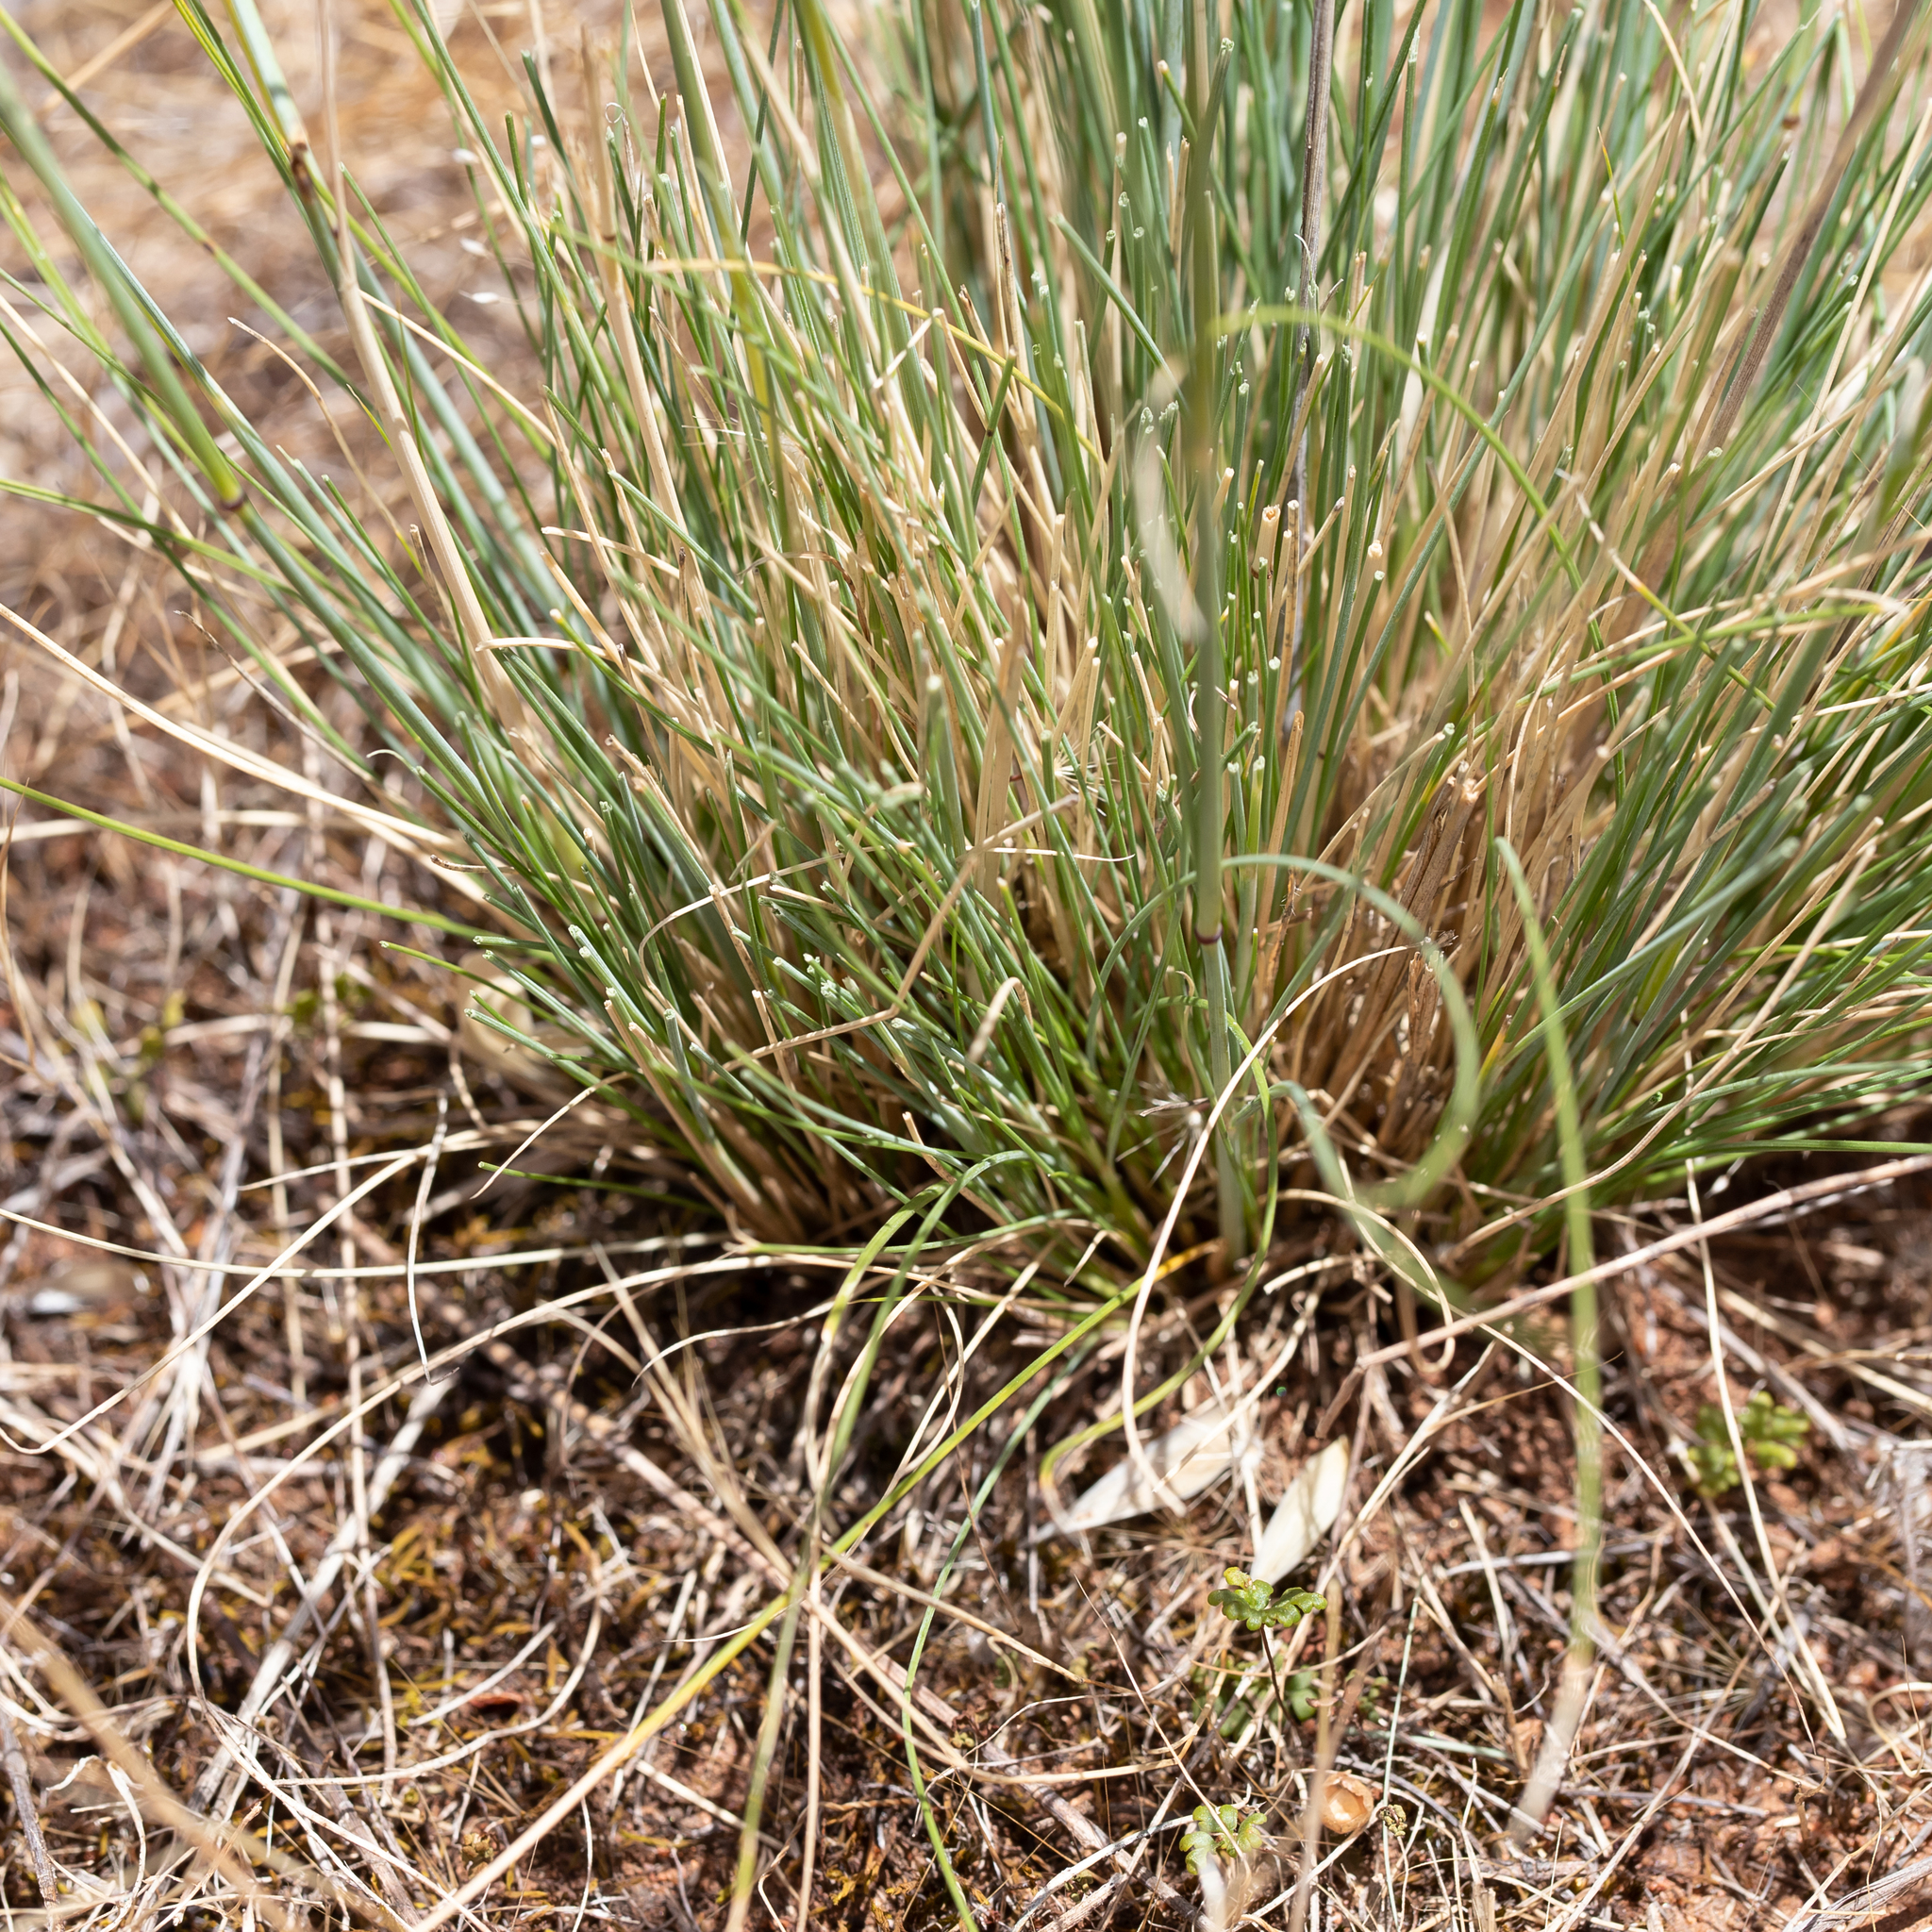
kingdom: Plantae
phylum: Tracheophyta
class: Liliopsida
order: Poales
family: Poaceae
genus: Austrostipa
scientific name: Austrostipa setacea
